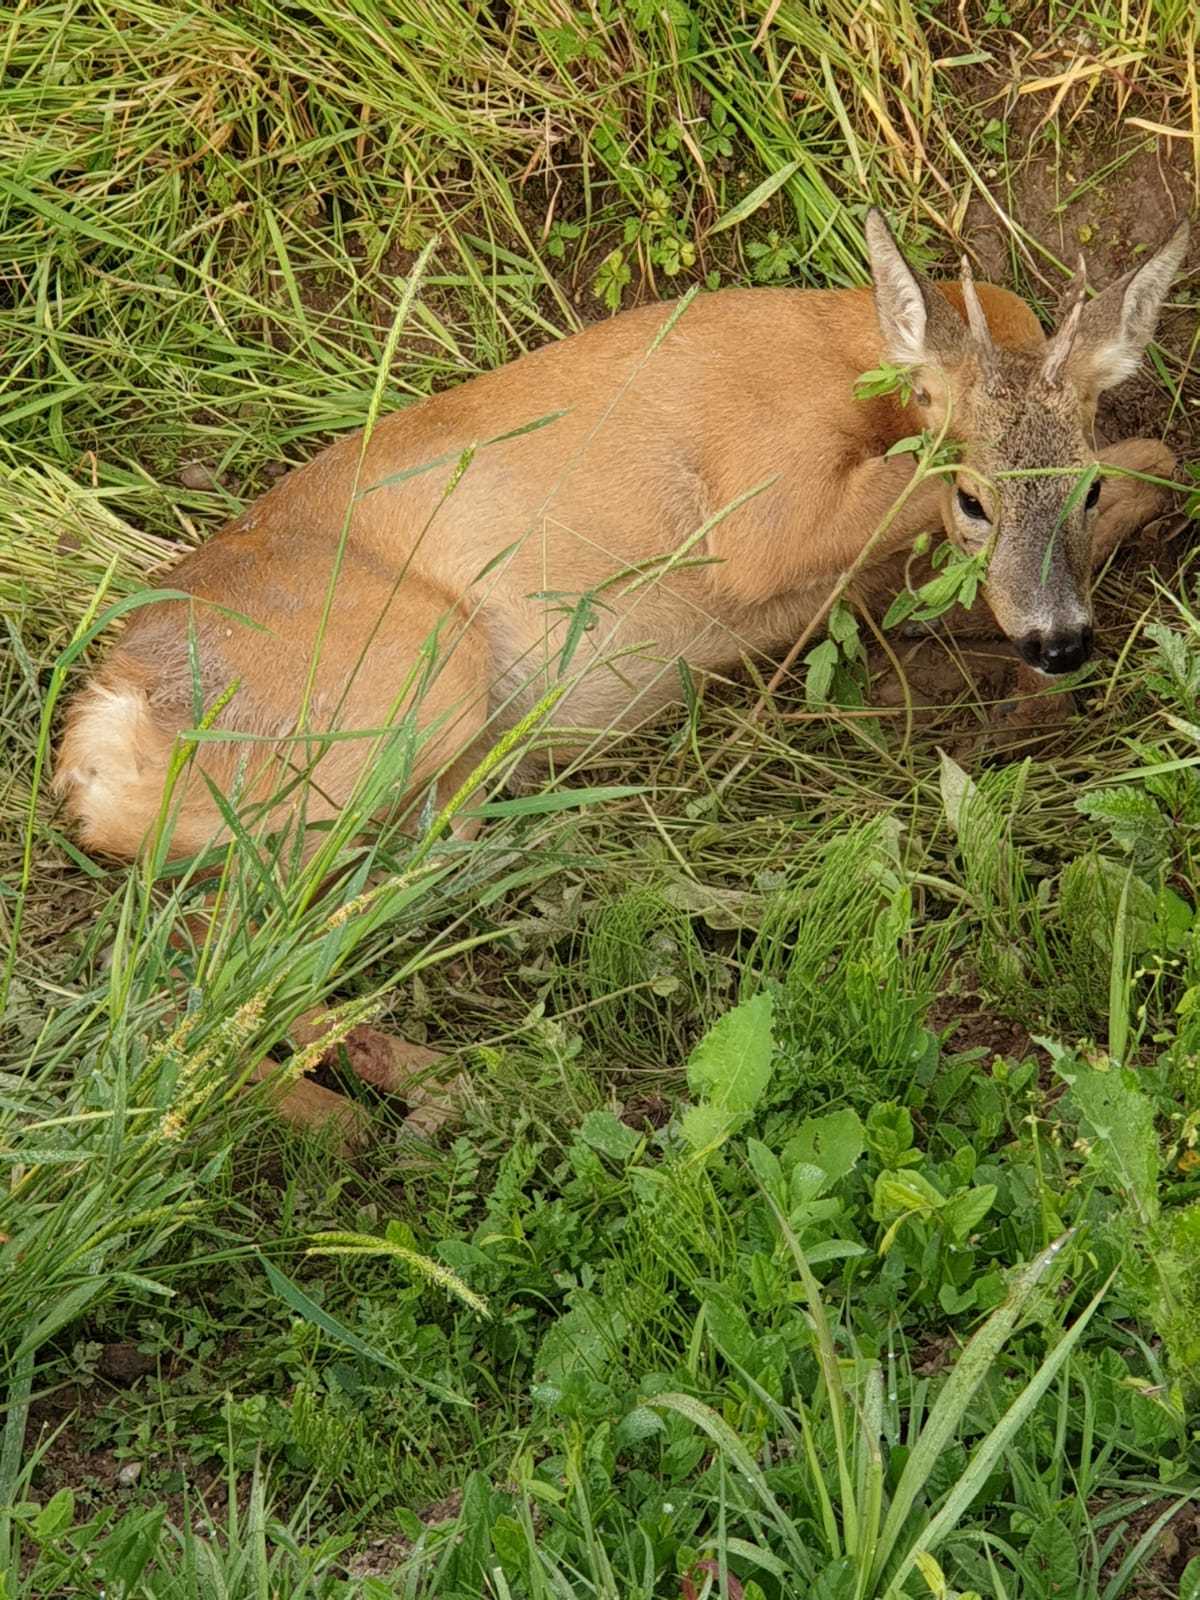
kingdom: Animalia
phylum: Chordata
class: Mammalia
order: Artiodactyla
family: Cervidae
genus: Capreolus
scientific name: Capreolus capreolus
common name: Western roe deer
